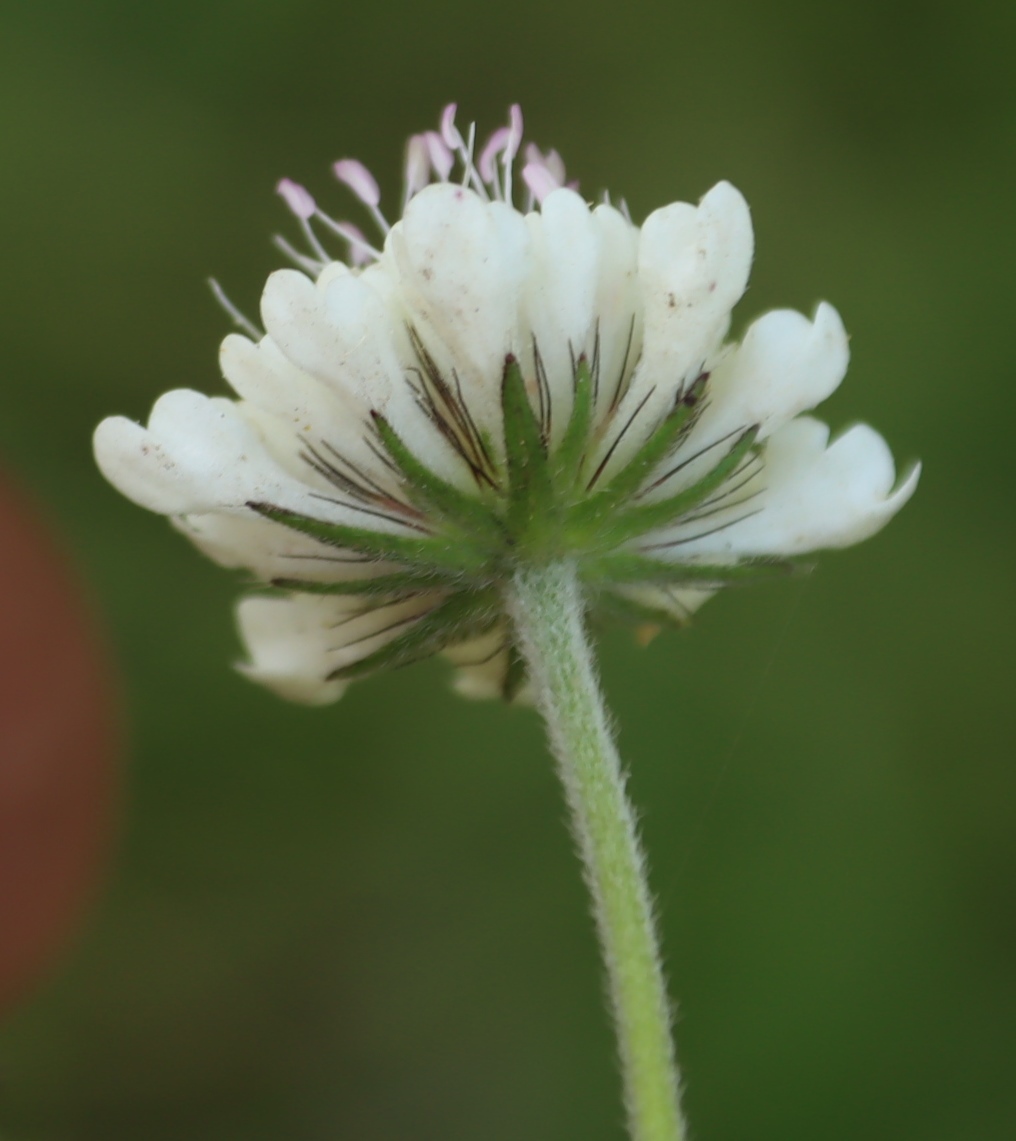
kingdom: Plantae
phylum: Tracheophyta
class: Magnoliopsida
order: Dipsacales
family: Caprifoliaceae
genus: Scabiosa
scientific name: Scabiosa columbaria
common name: Small scabious
